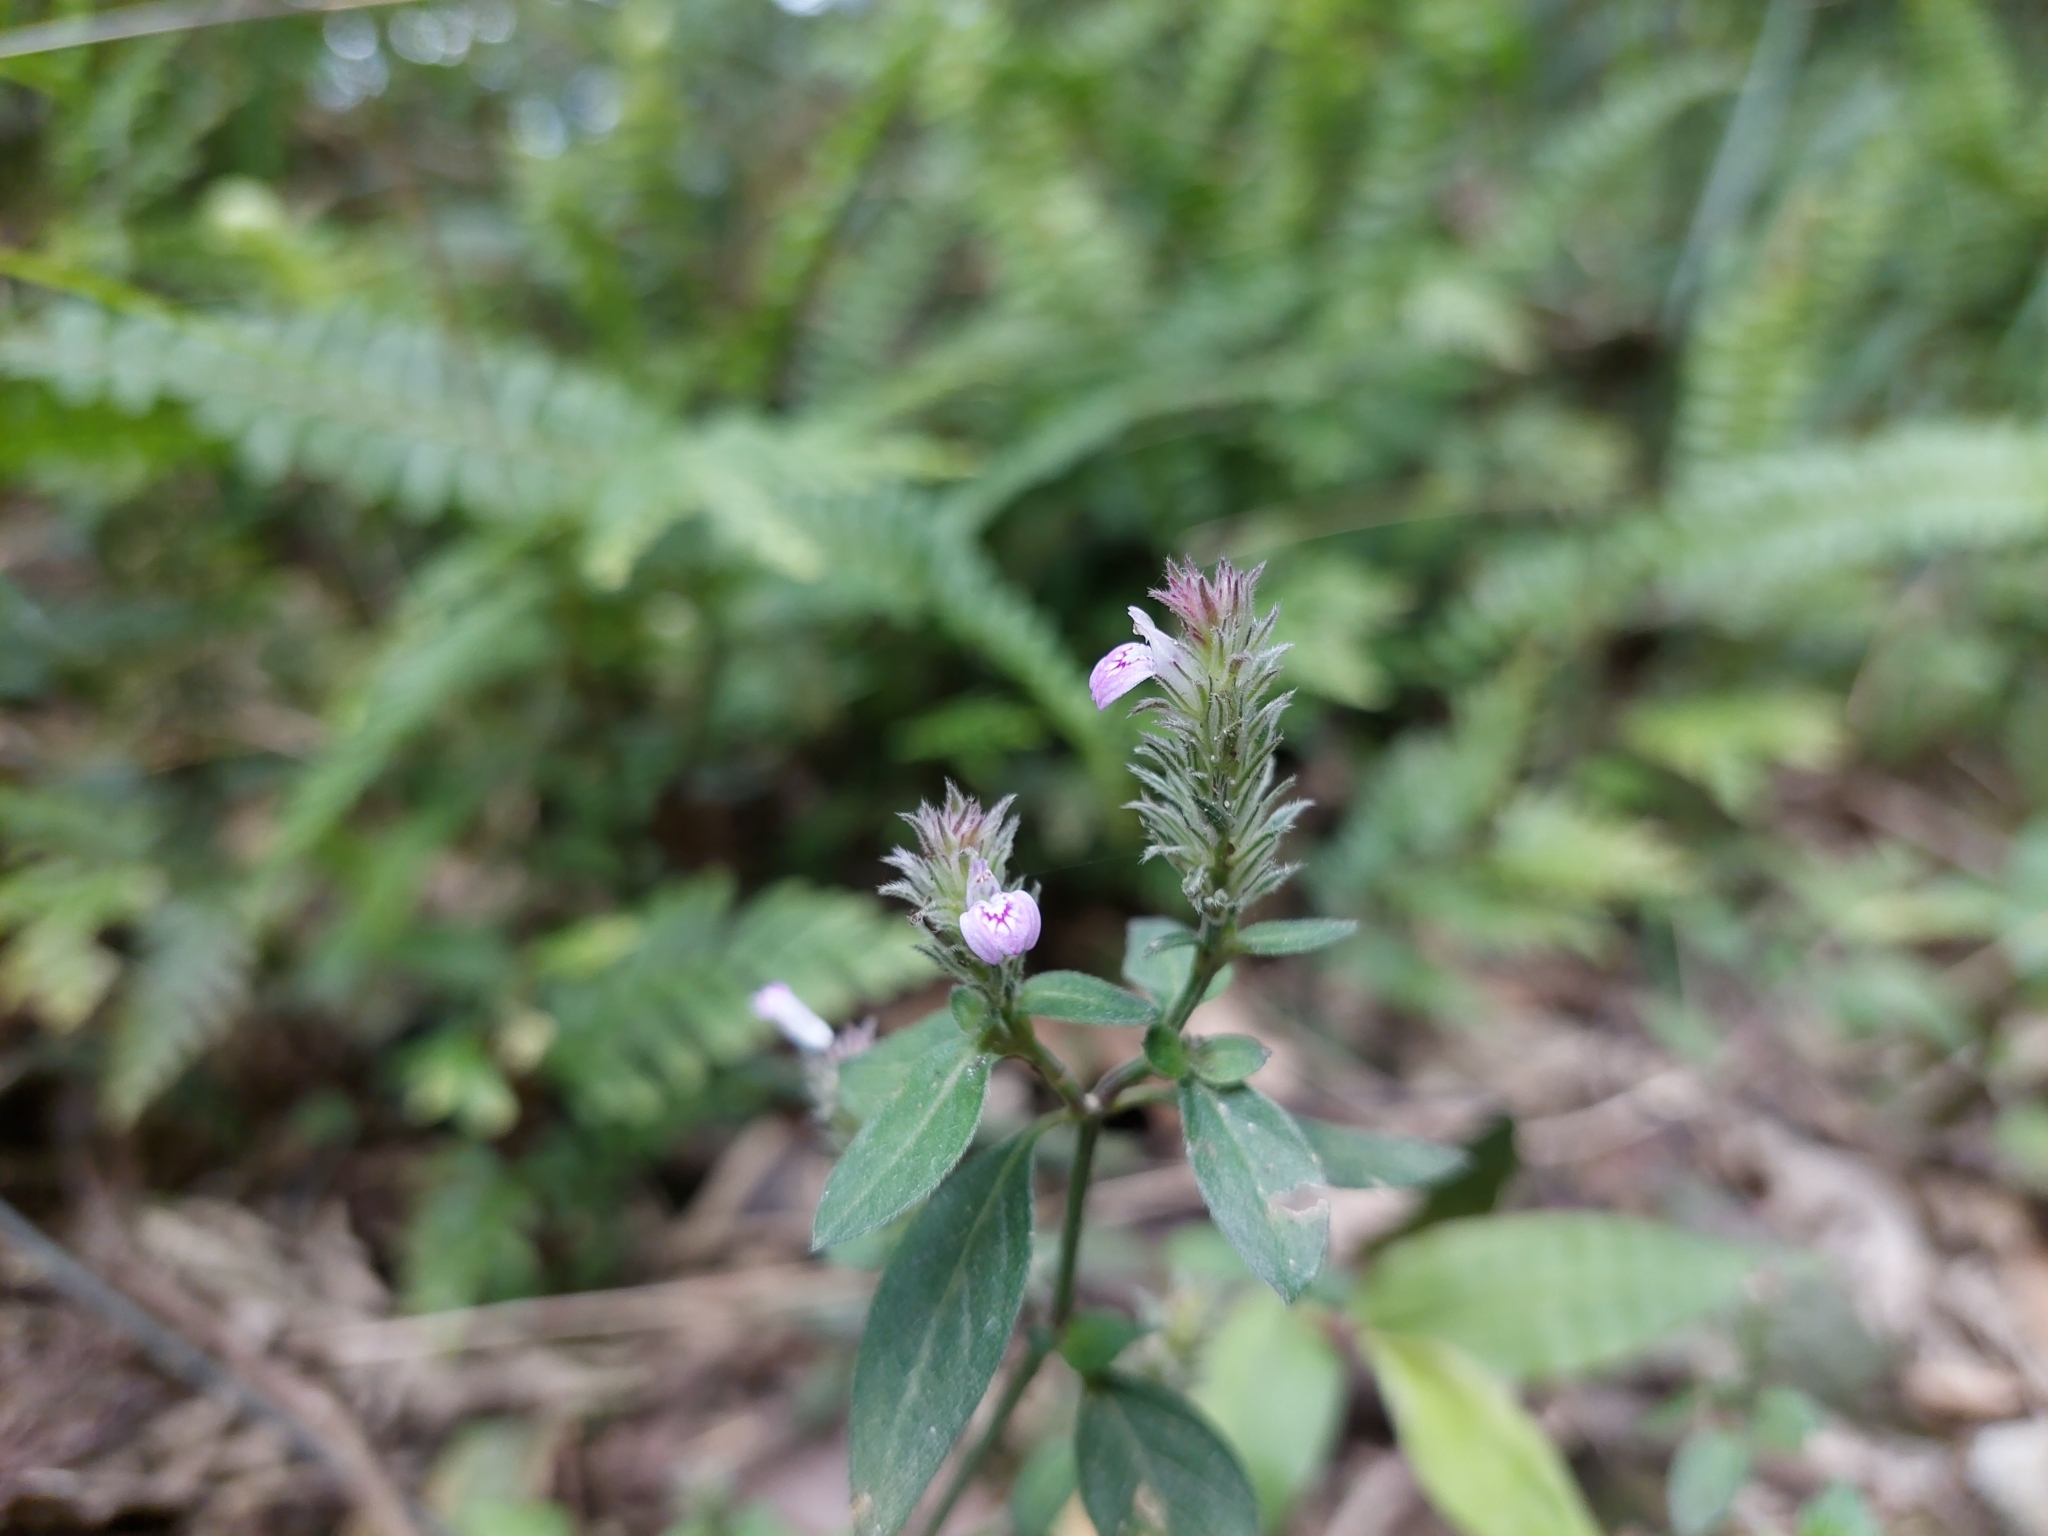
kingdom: Plantae
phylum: Tracheophyta
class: Magnoliopsida
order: Lamiales
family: Acanthaceae
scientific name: Acanthaceae
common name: Acanthaceae
